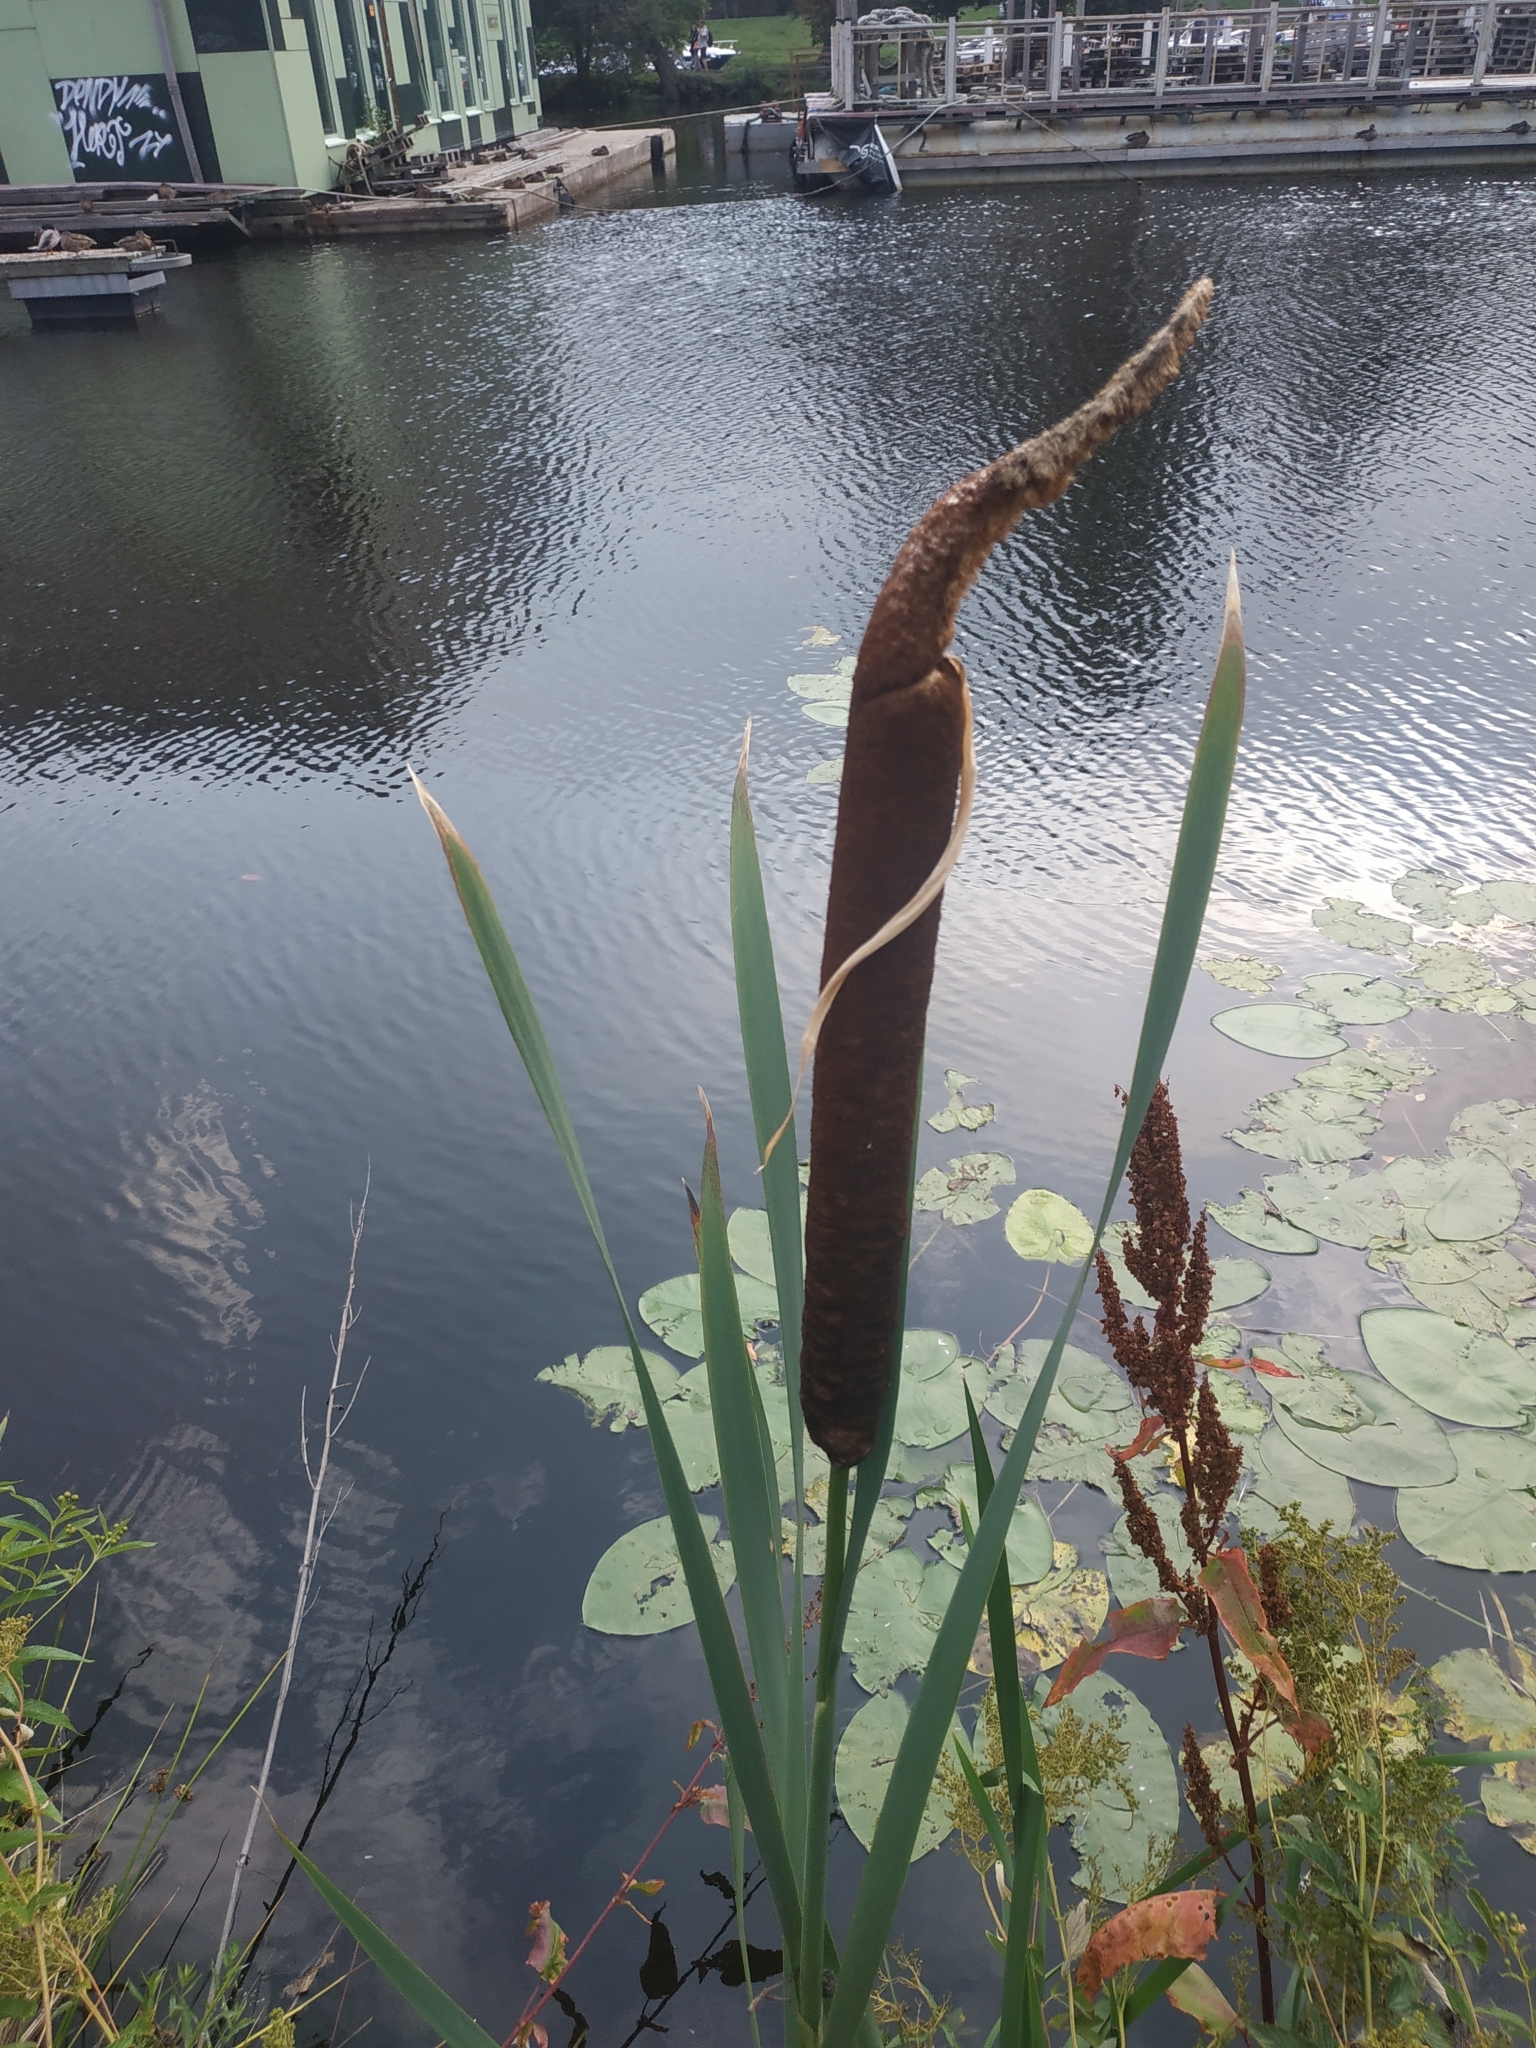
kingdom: Plantae
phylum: Tracheophyta
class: Liliopsida
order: Poales
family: Typhaceae
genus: Typha
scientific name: Typha latifolia
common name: Broadleaf cattail
